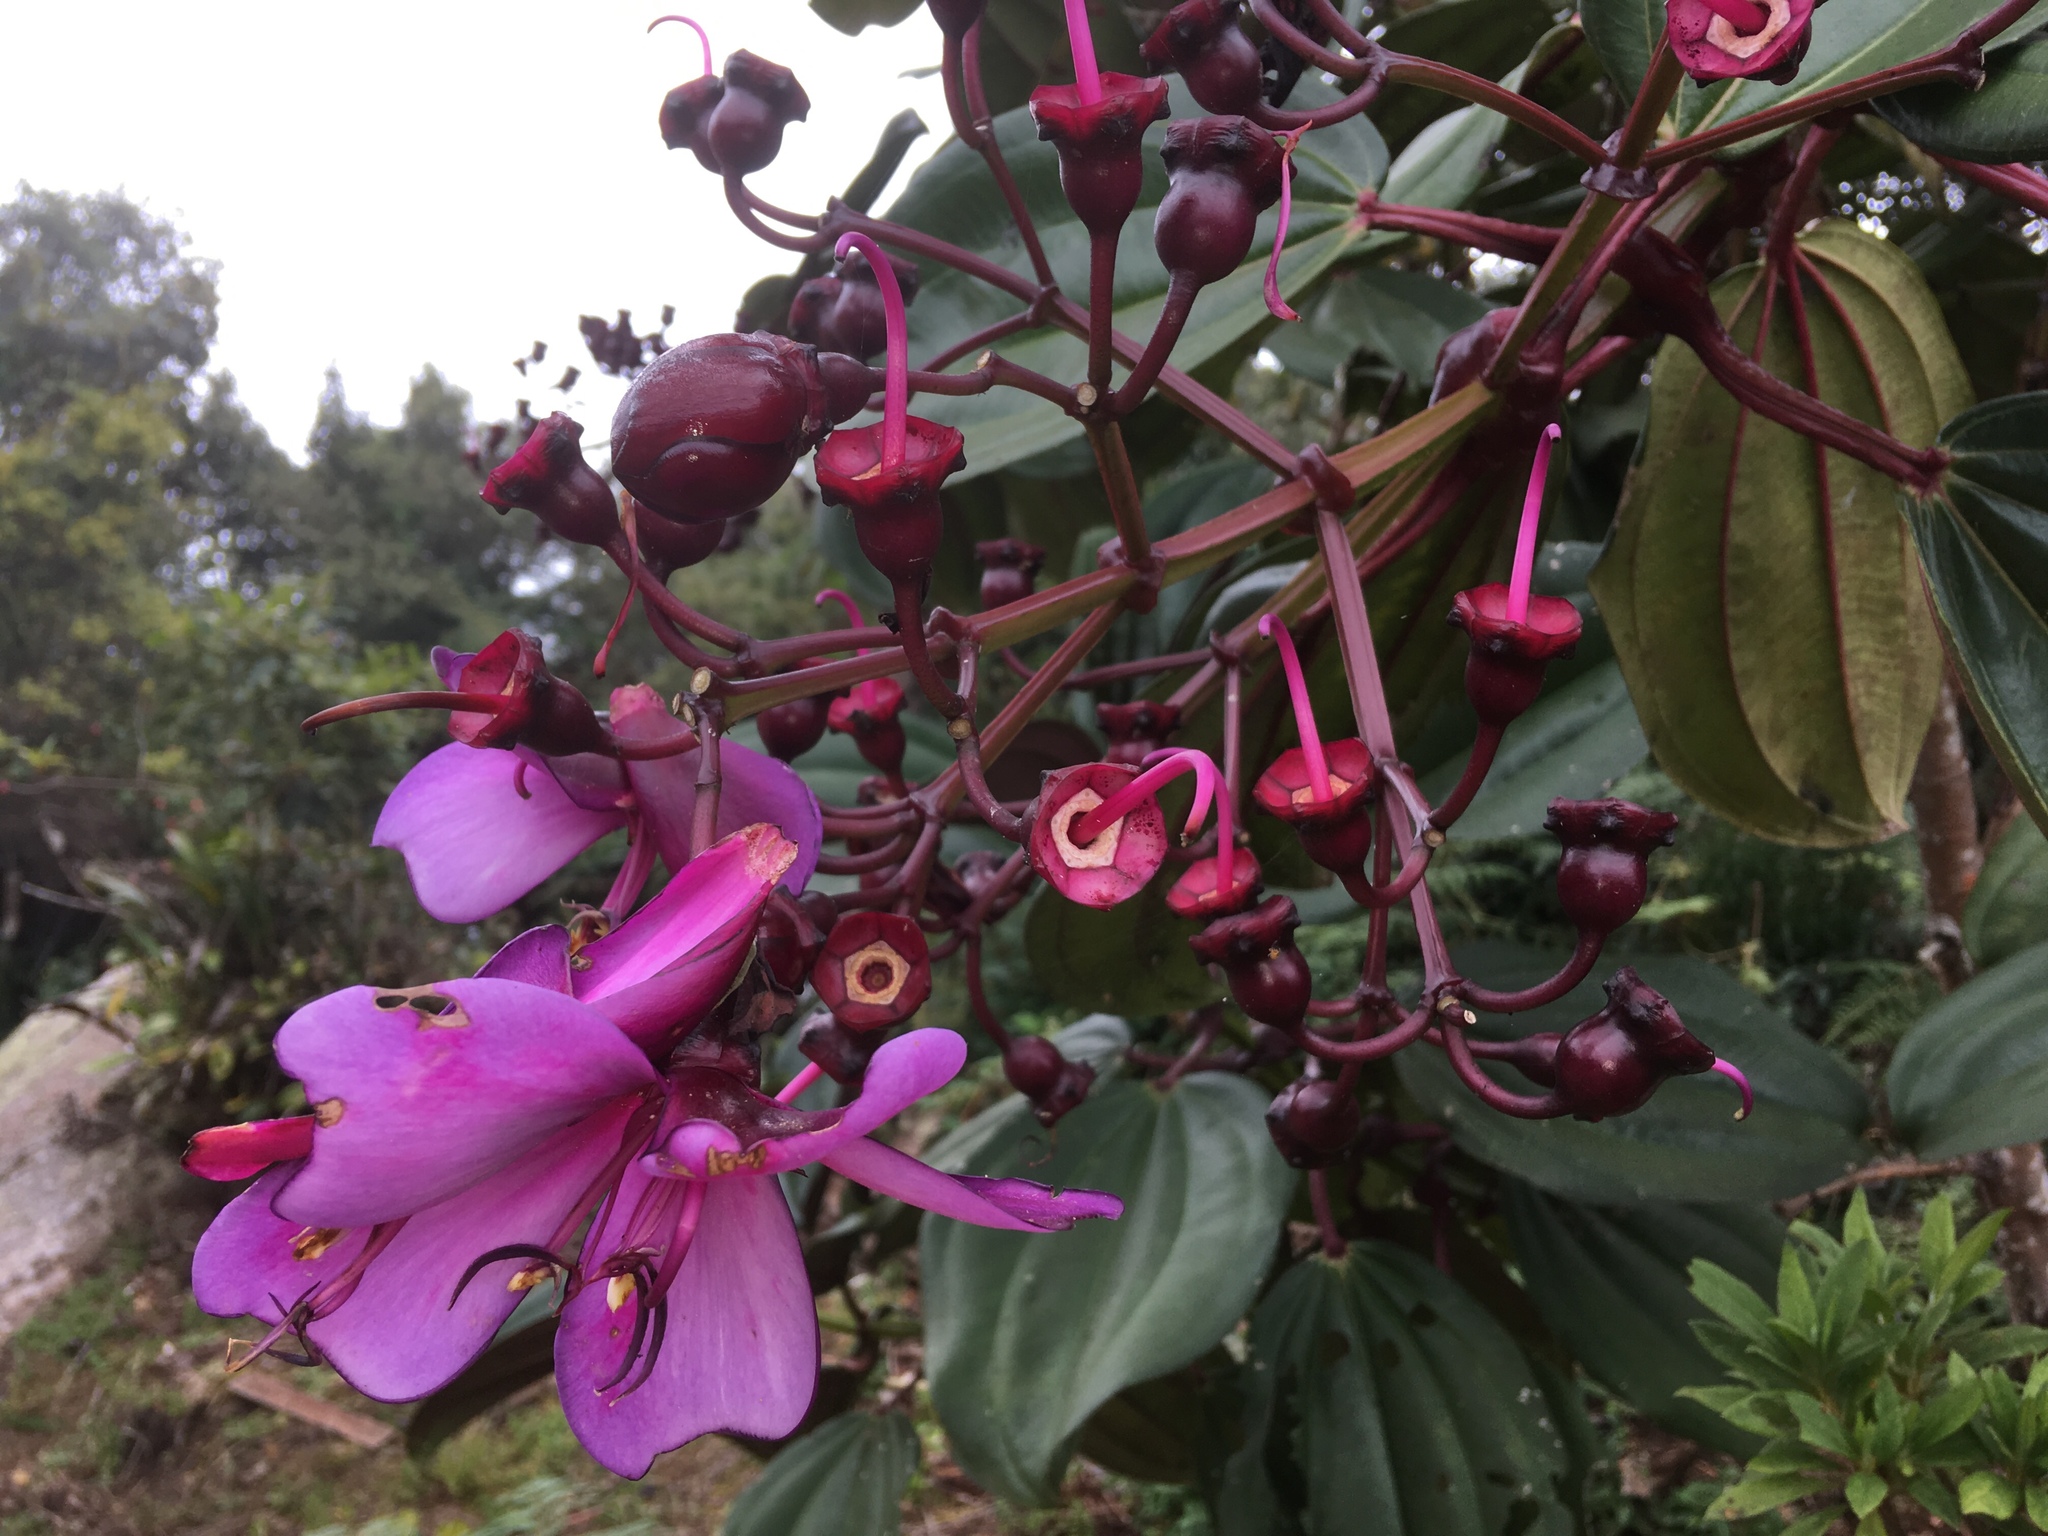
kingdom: Plantae
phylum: Tracheophyta
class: Magnoliopsida
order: Myrtales
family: Melastomataceae
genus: Meriania
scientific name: Meriania nobilis
